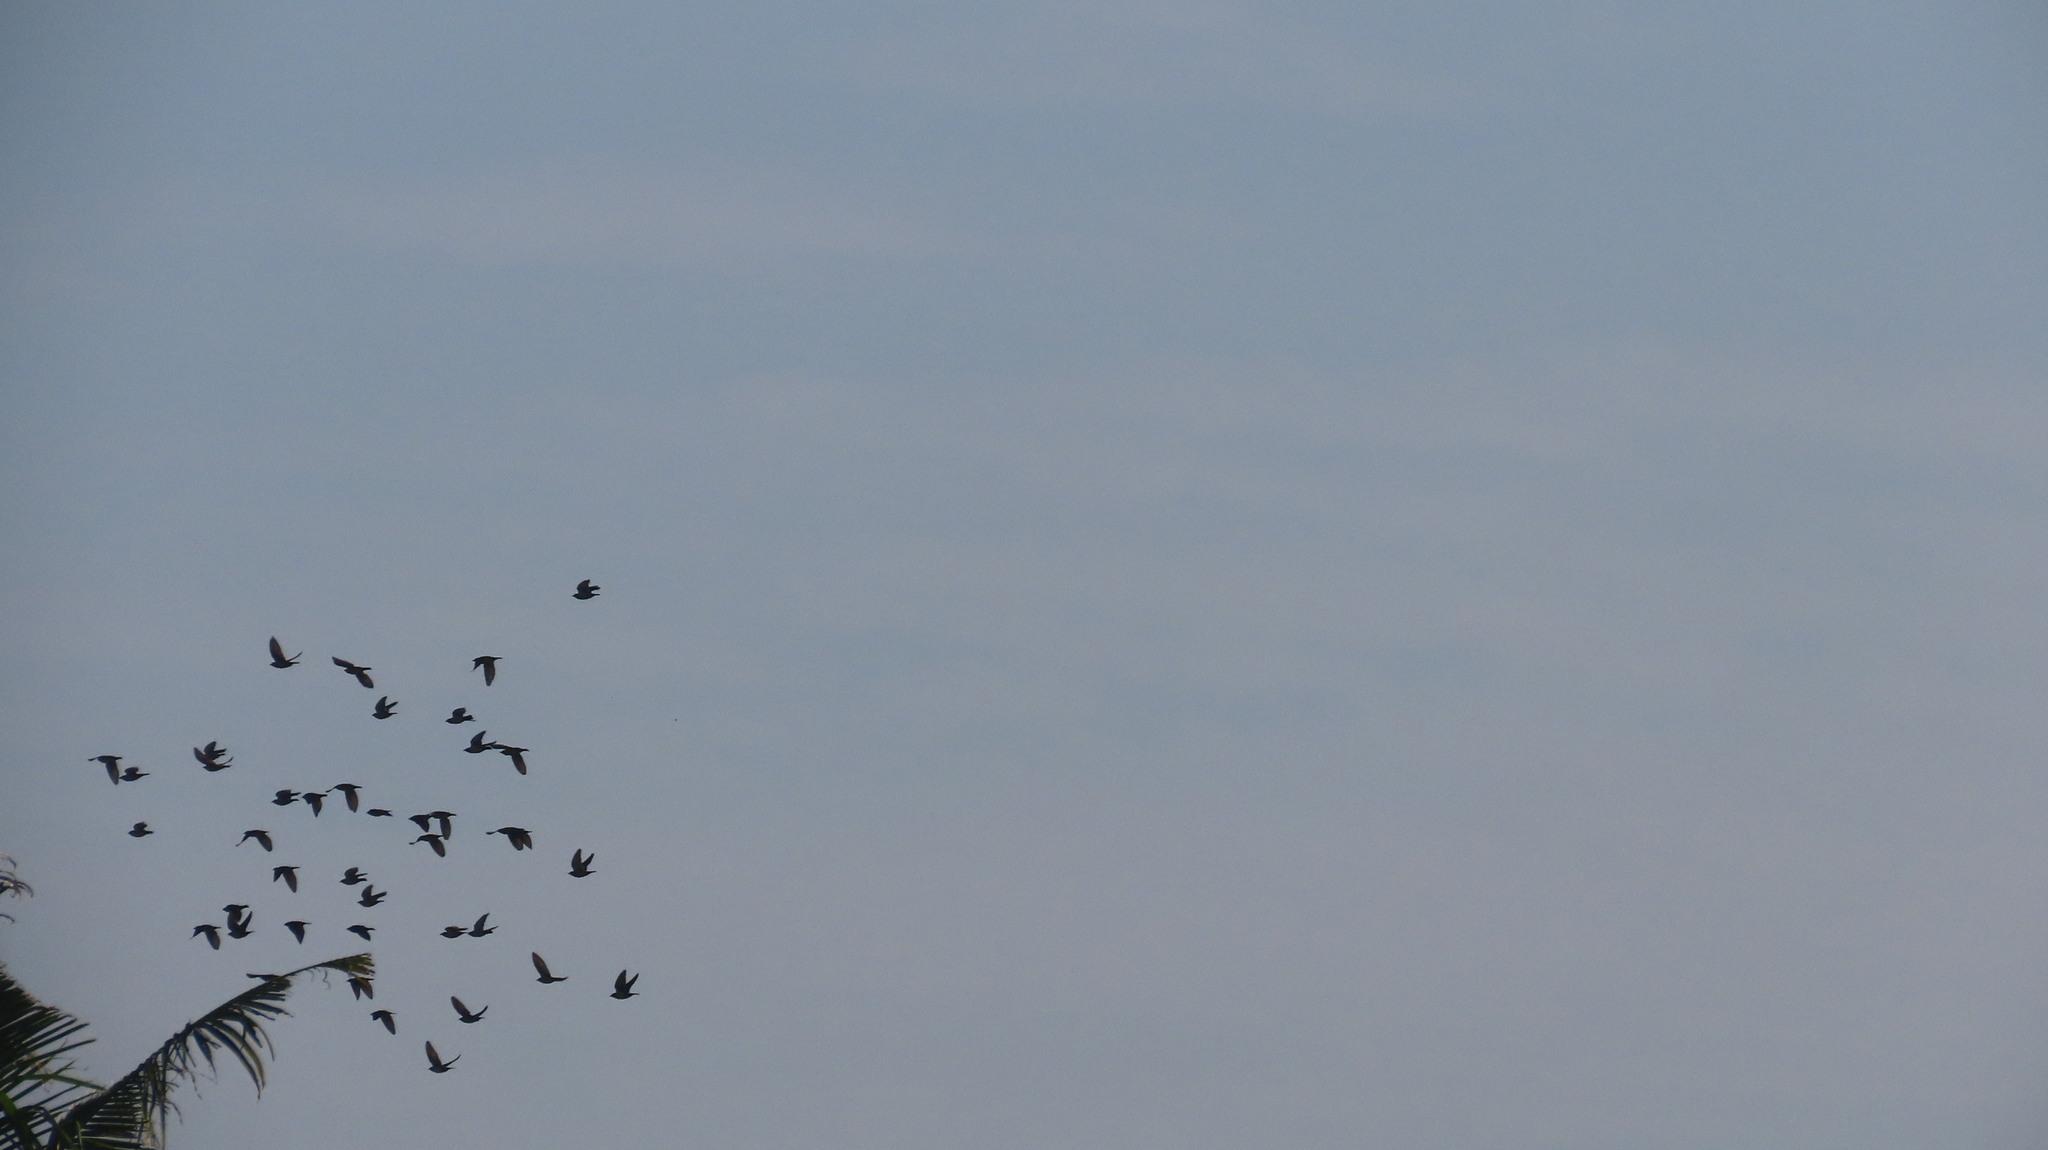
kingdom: Animalia
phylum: Chordata
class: Aves
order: Passeriformes
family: Sturnidae
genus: Pastor
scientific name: Pastor roseus
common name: Rosy starling
